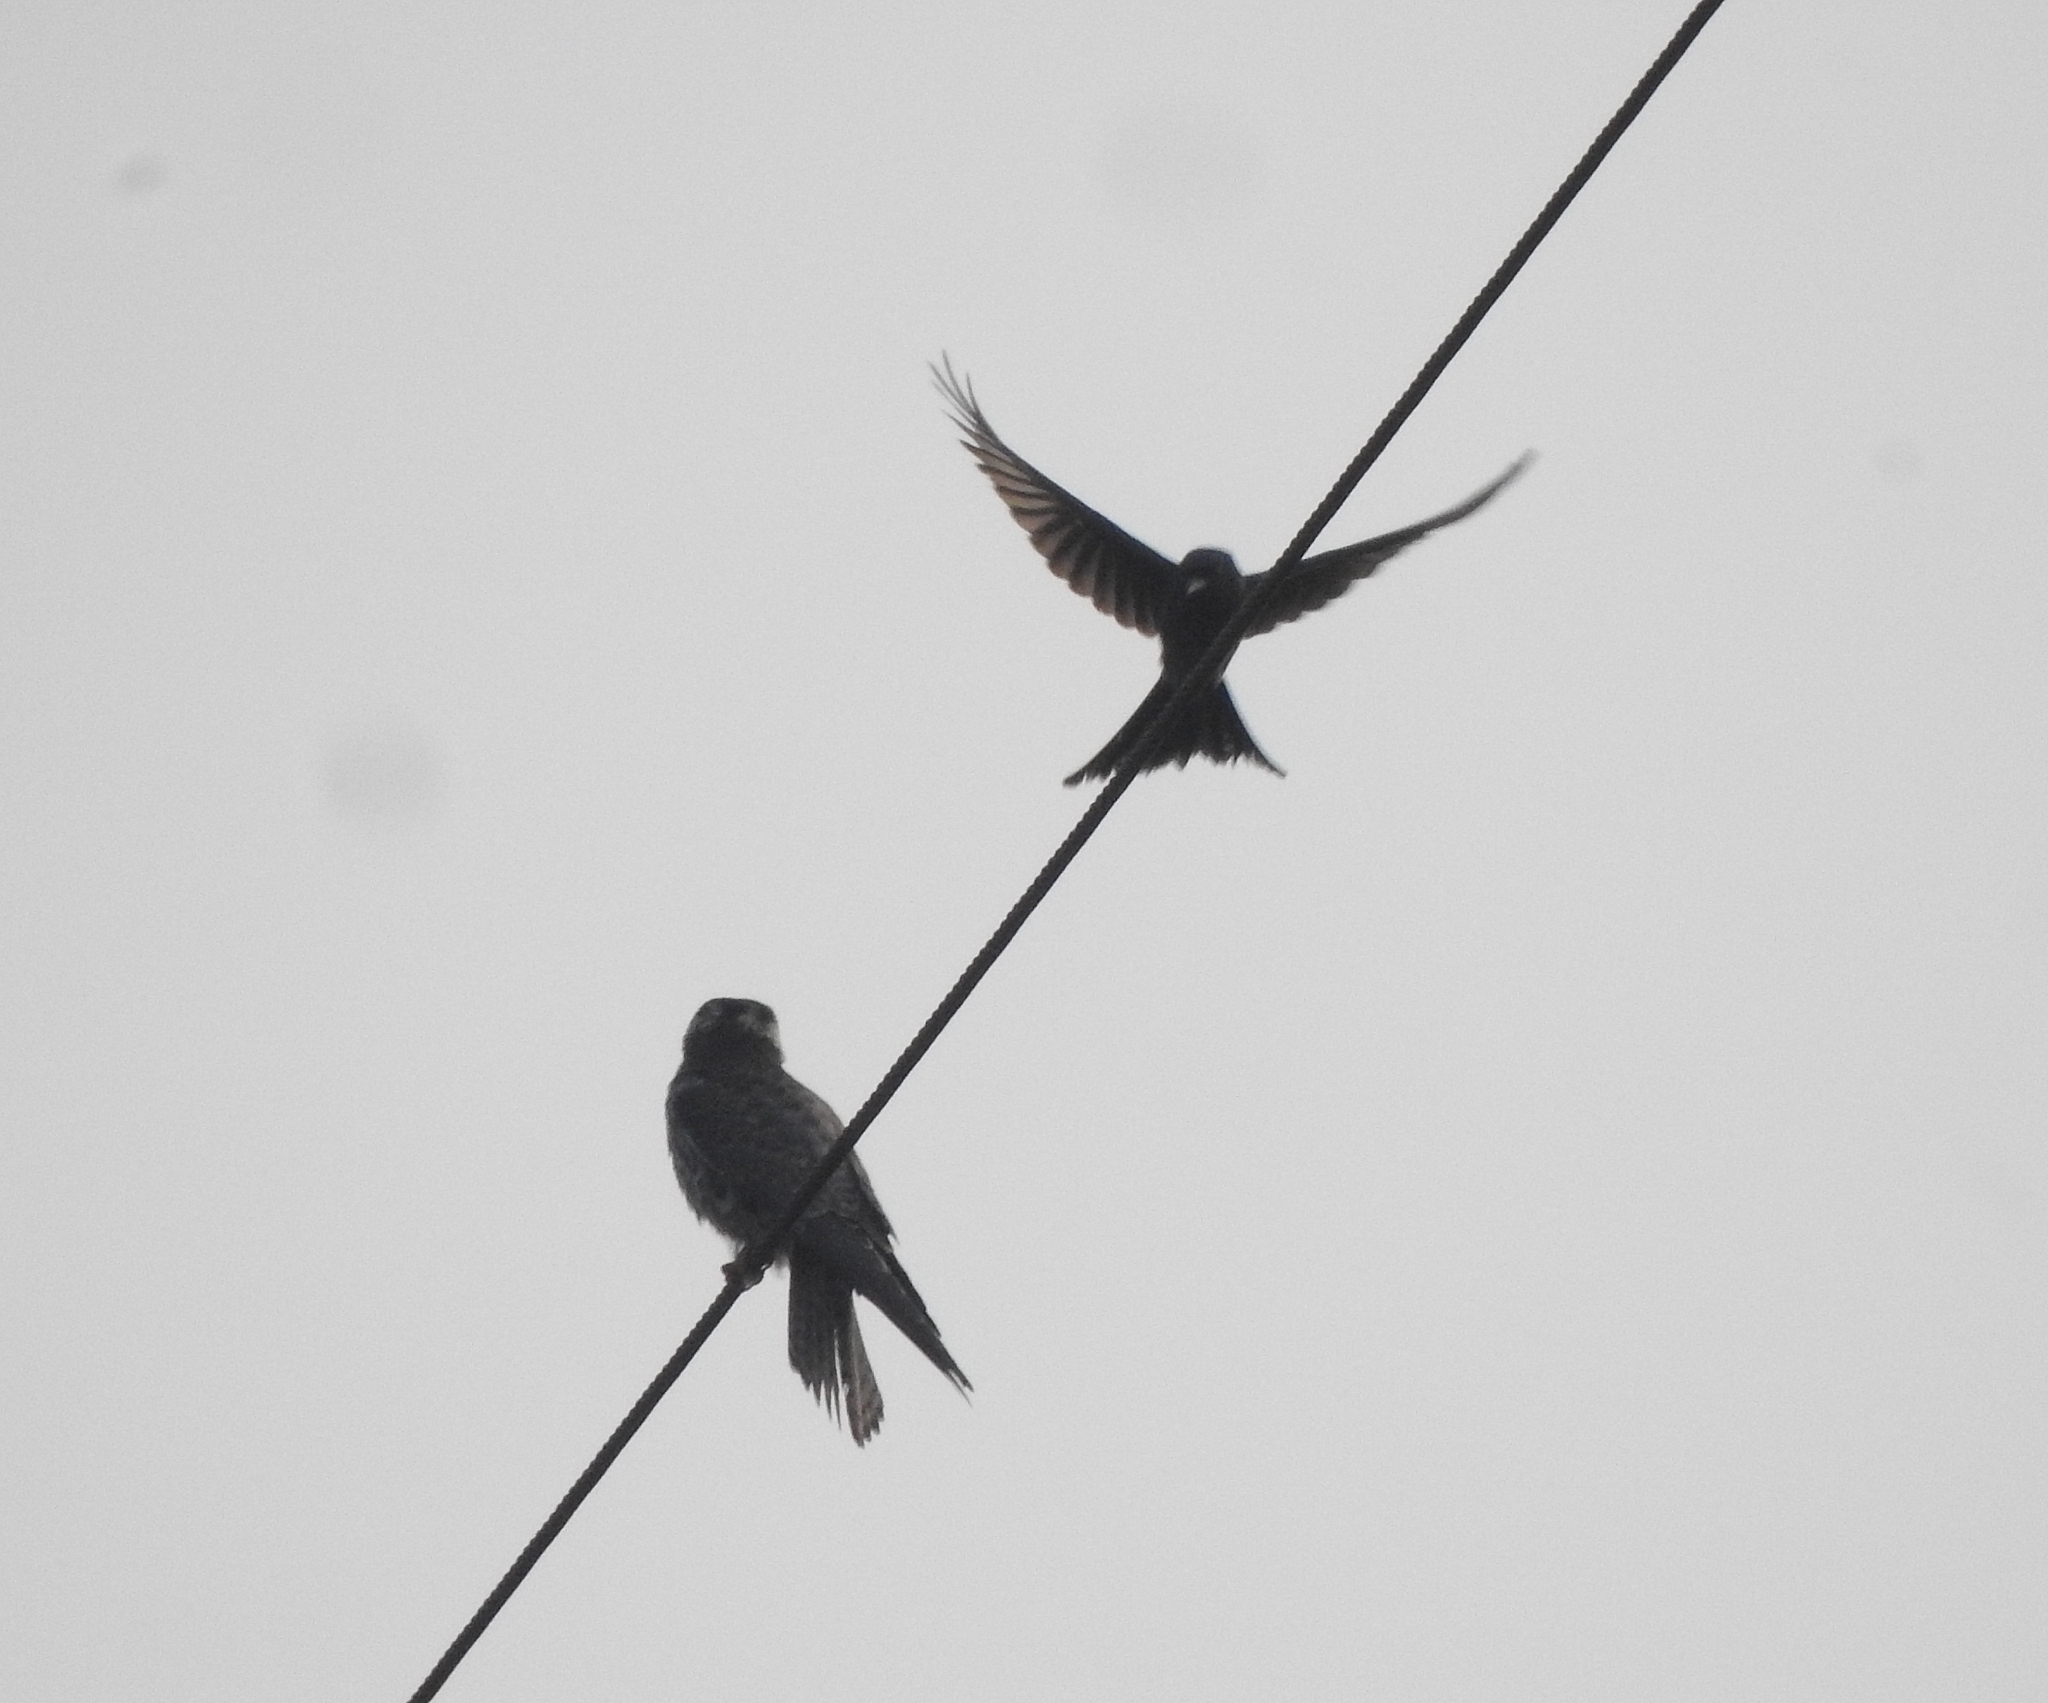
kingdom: Animalia
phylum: Chordata
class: Aves
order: Falconiformes
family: Falconidae
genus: Falco
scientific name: Falco amurensis
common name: Amur falcon
